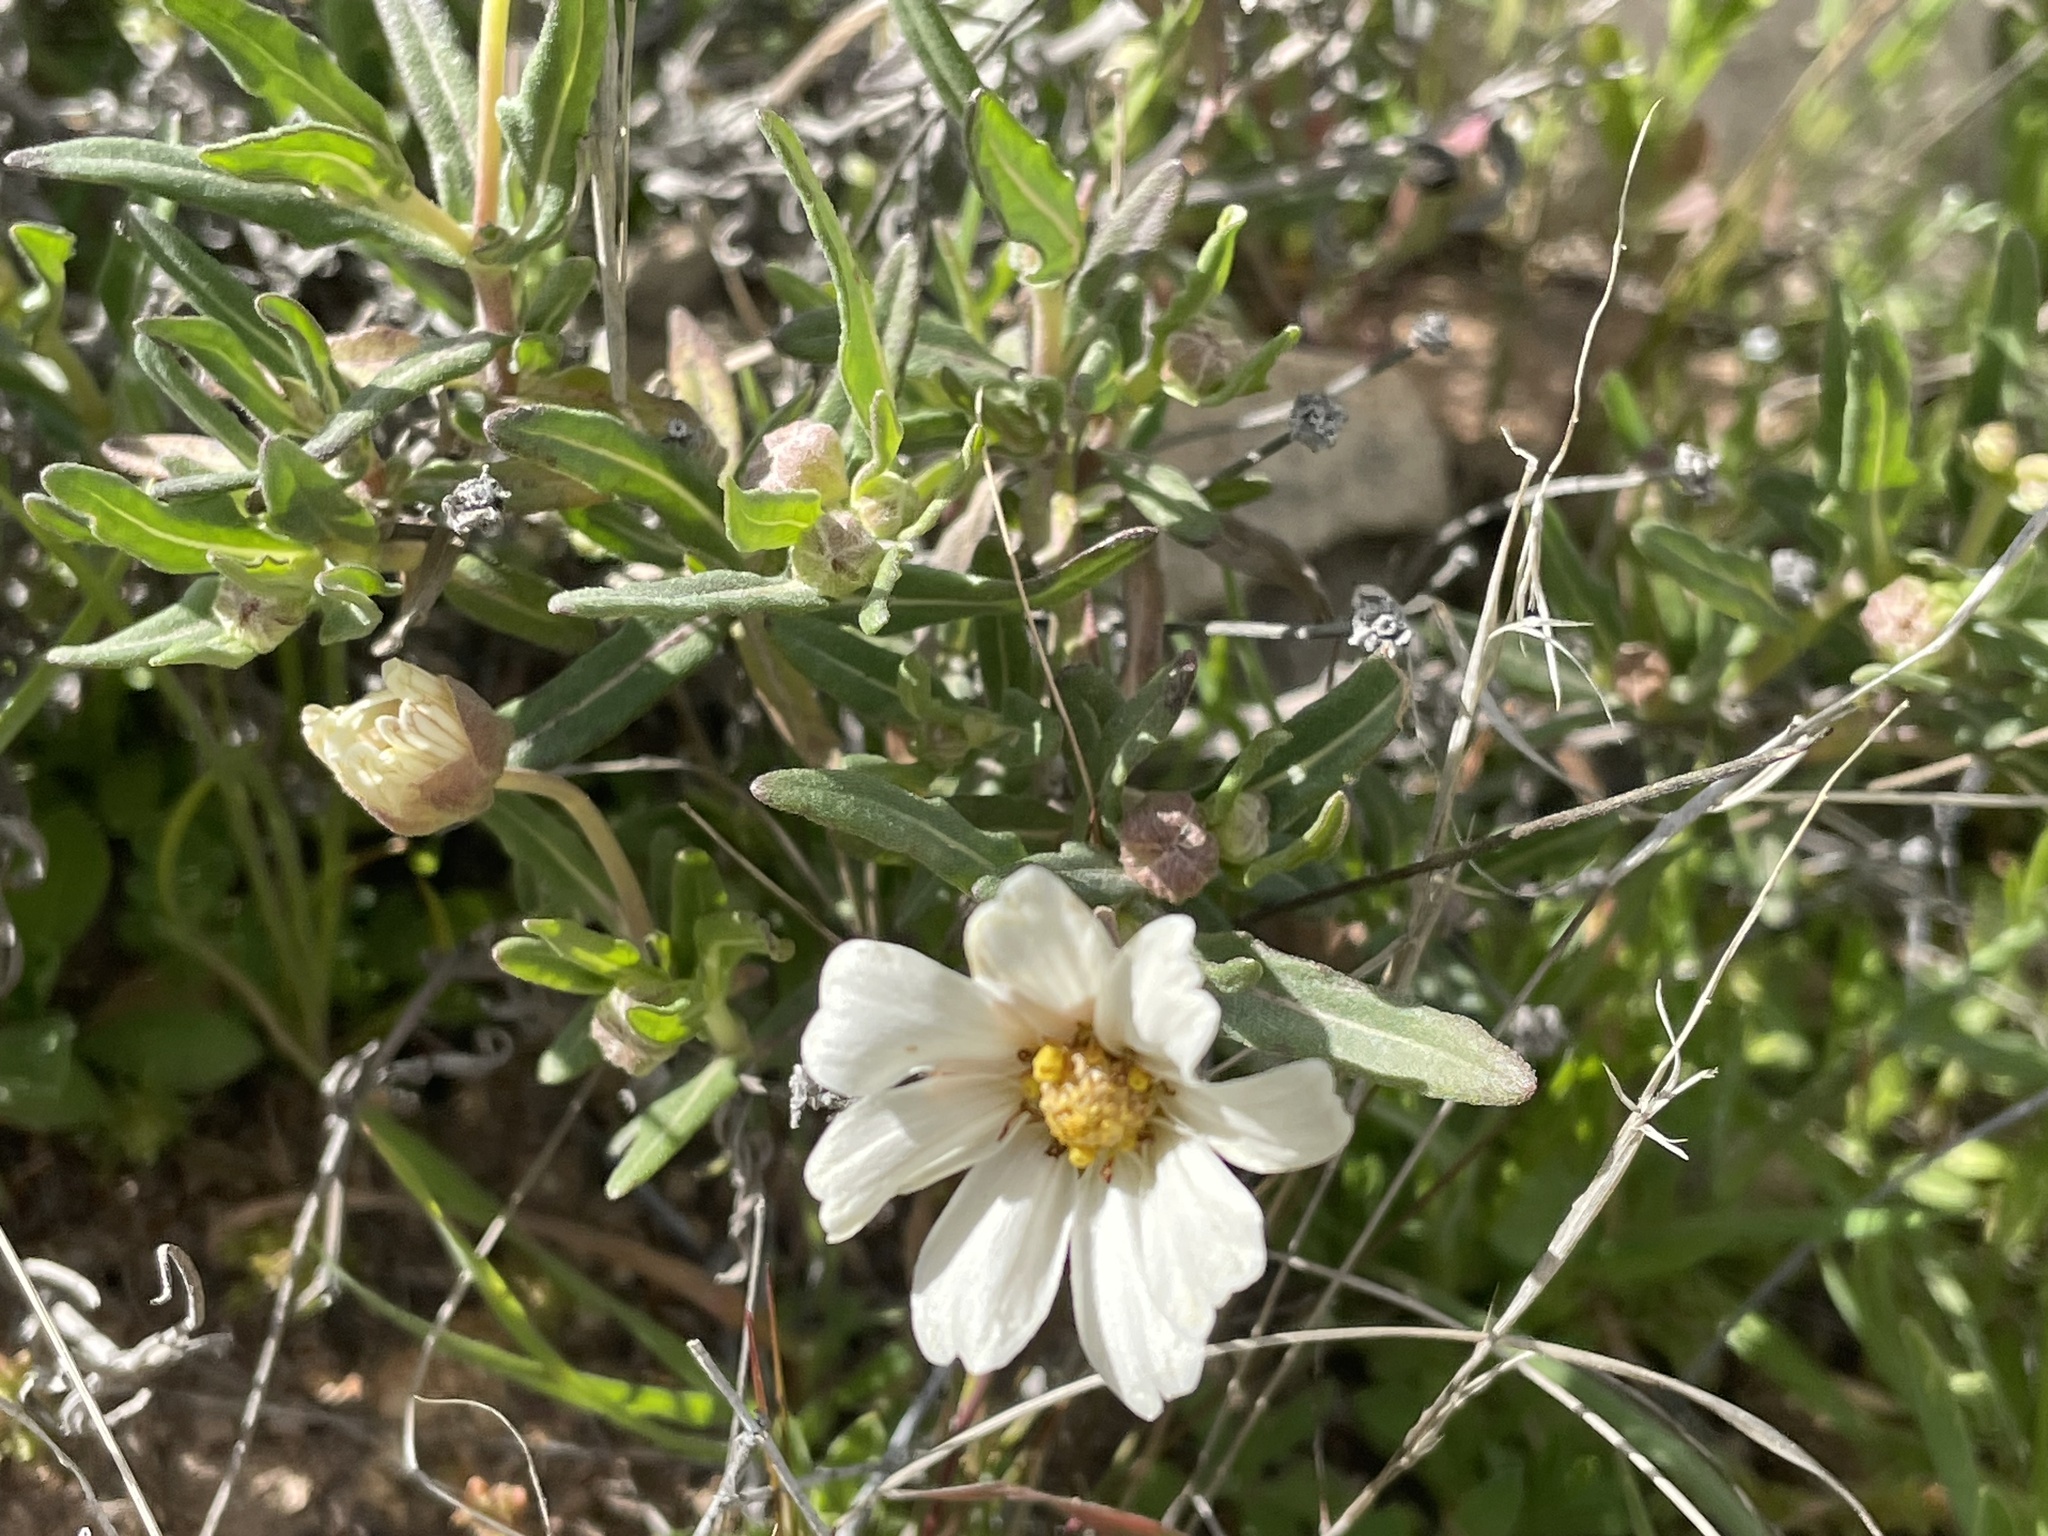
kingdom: Plantae
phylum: Tracheophyta
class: Magnoliopsida
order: Asterales
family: Asteraceae
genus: Melampodium
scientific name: Melampodium leucanthum
